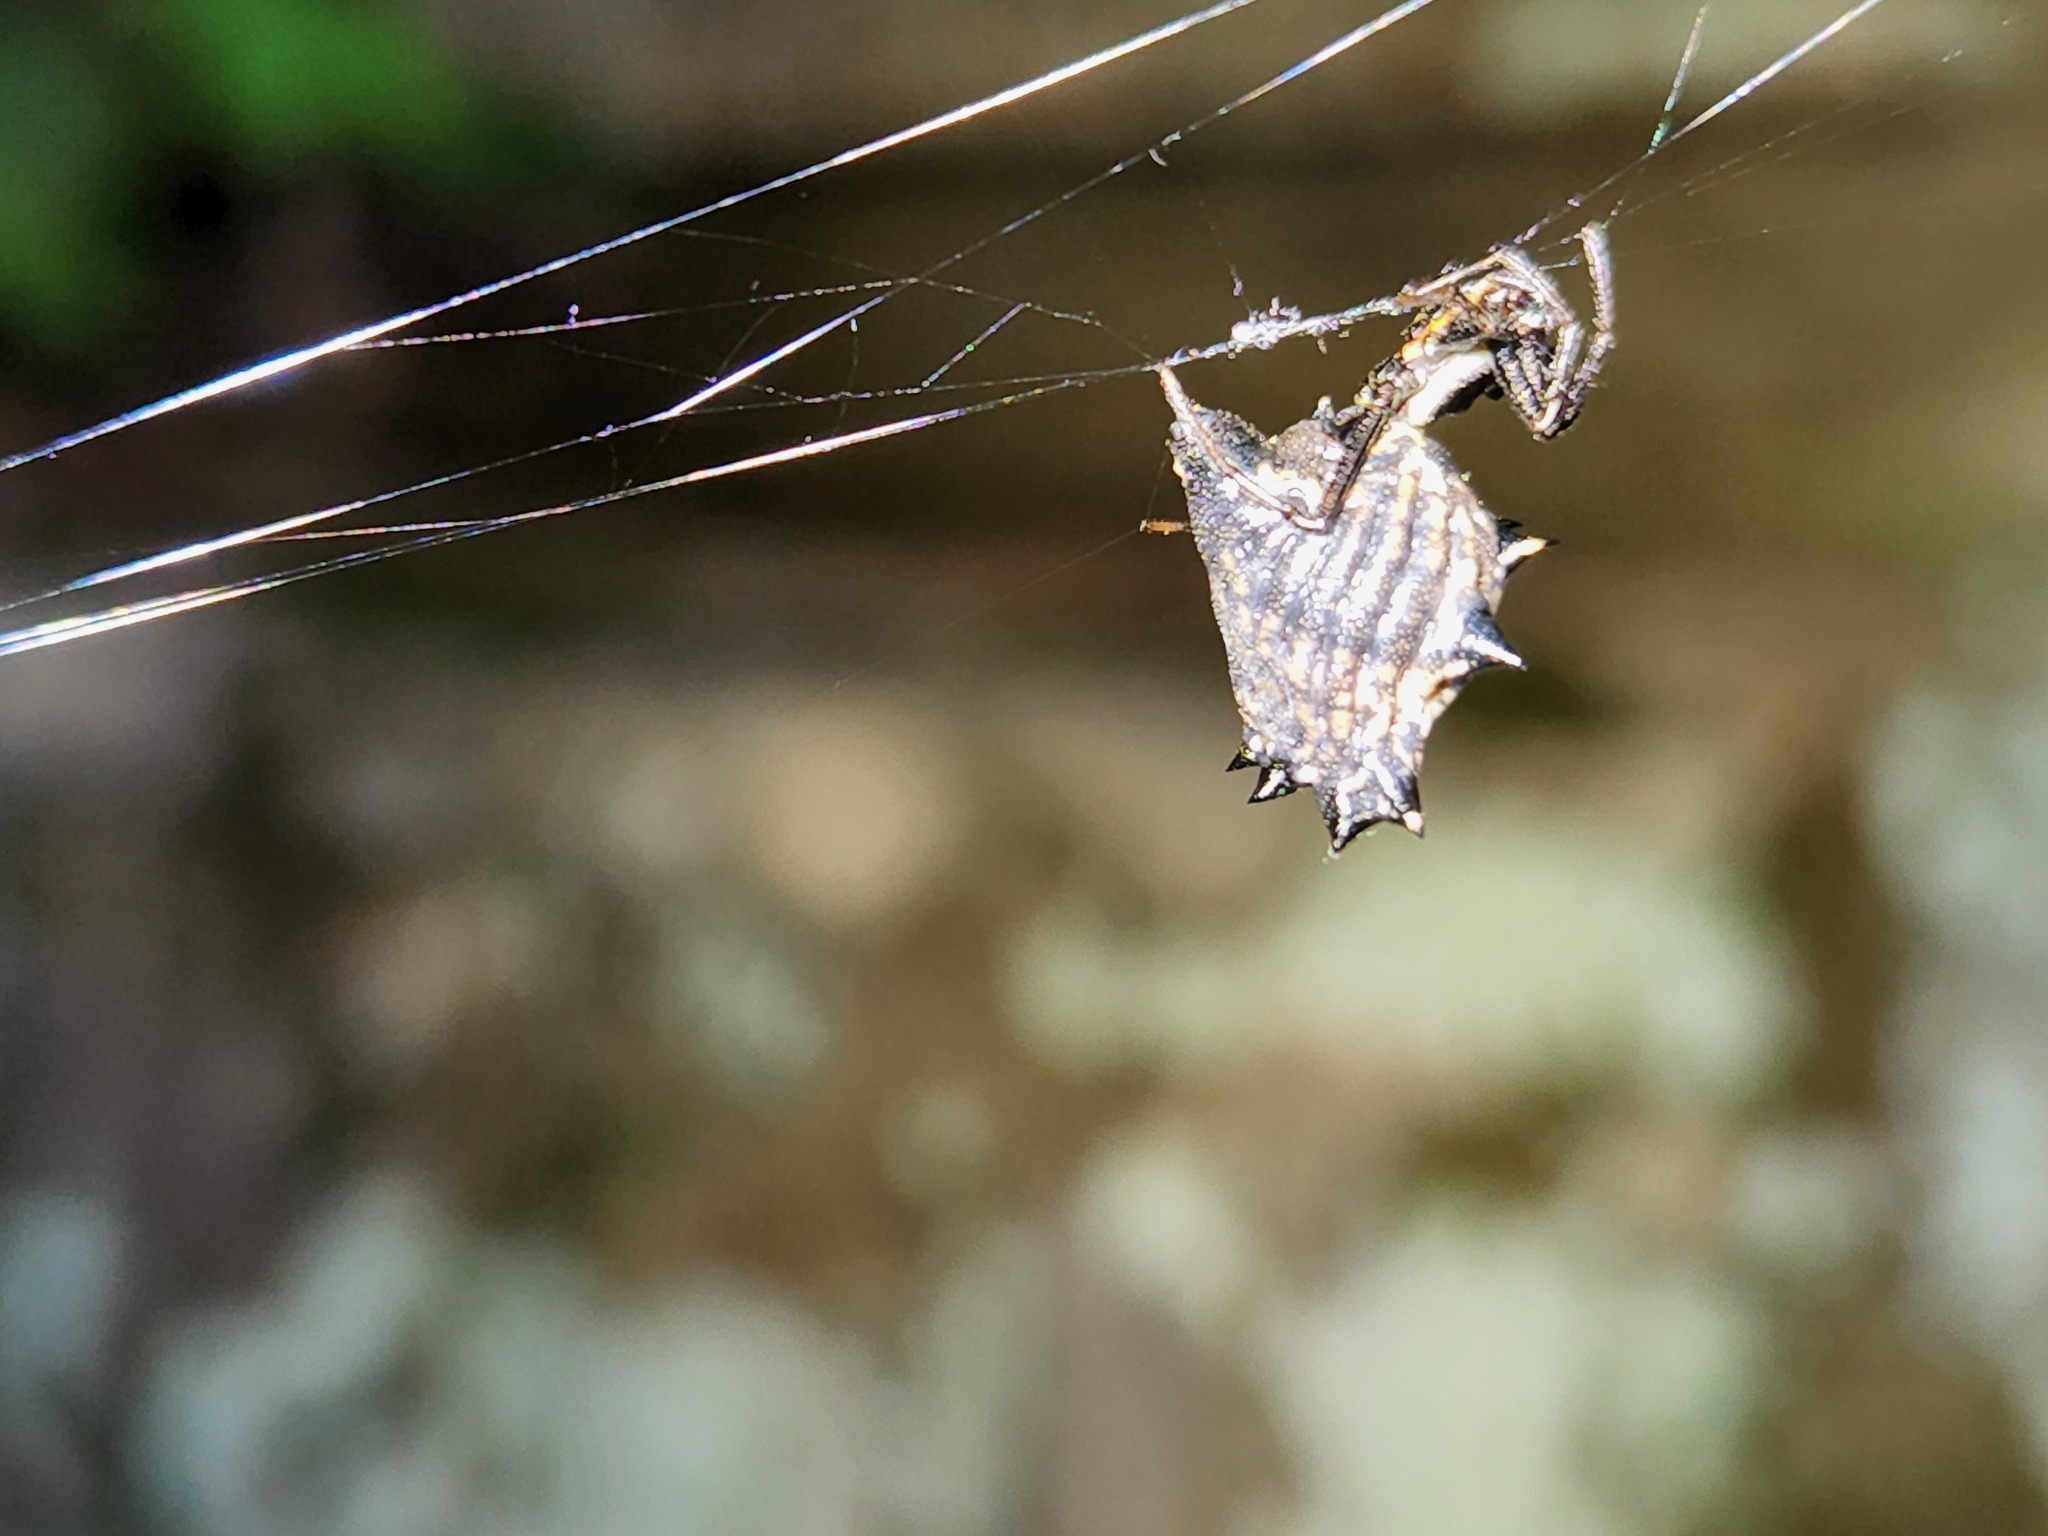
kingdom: Animalia
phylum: Arthropoda
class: Arachnida
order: Araneae
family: Araneidae
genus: Micrathena
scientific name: Micrathena gracilis
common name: Orb weavers
